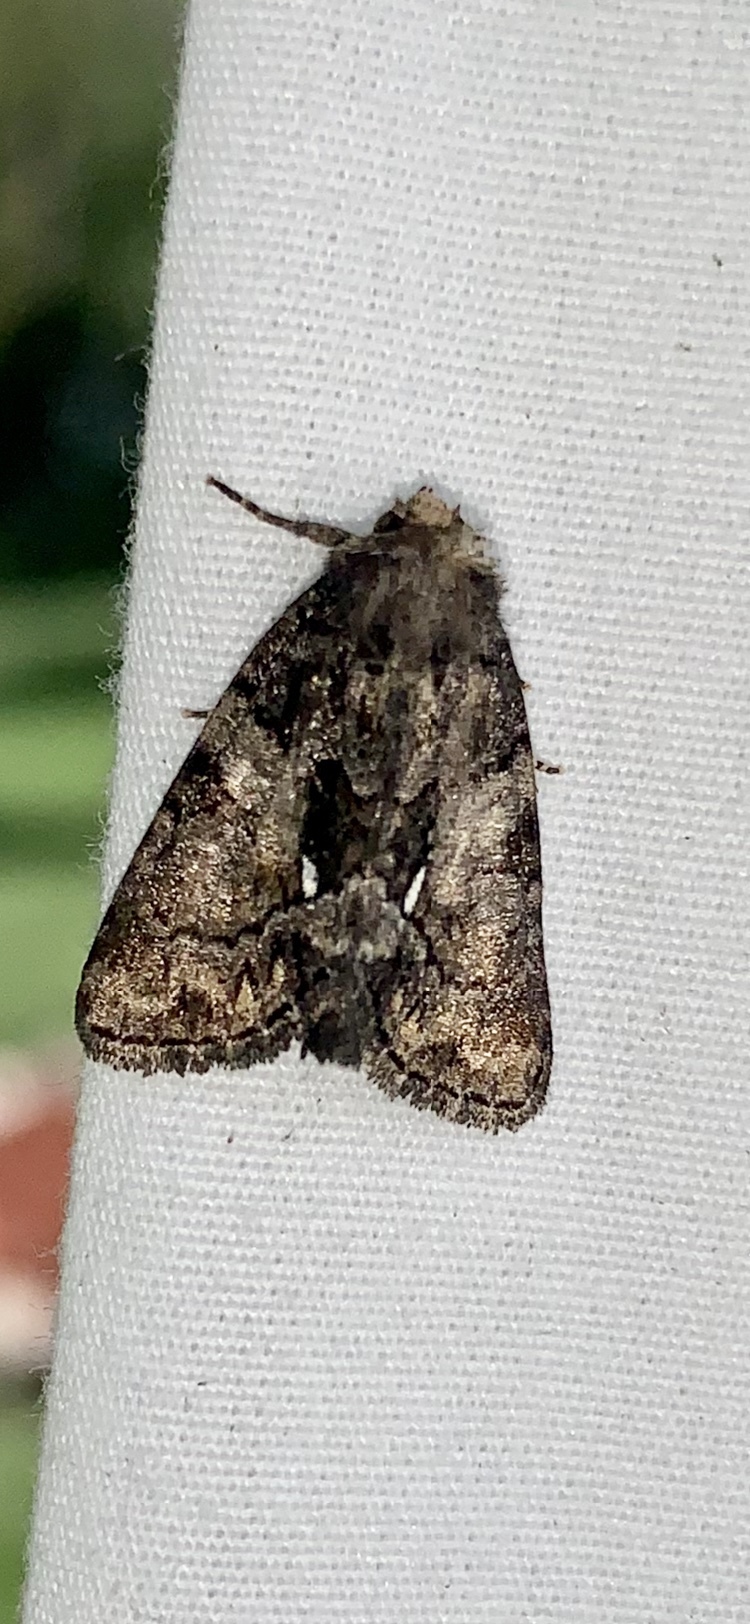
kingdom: Animalia
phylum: Arthropoda
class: Insecta
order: Lepidoptera
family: Noctuidae
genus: Chytonix
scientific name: Chytonix palliatricula
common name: Cloaked marvel
